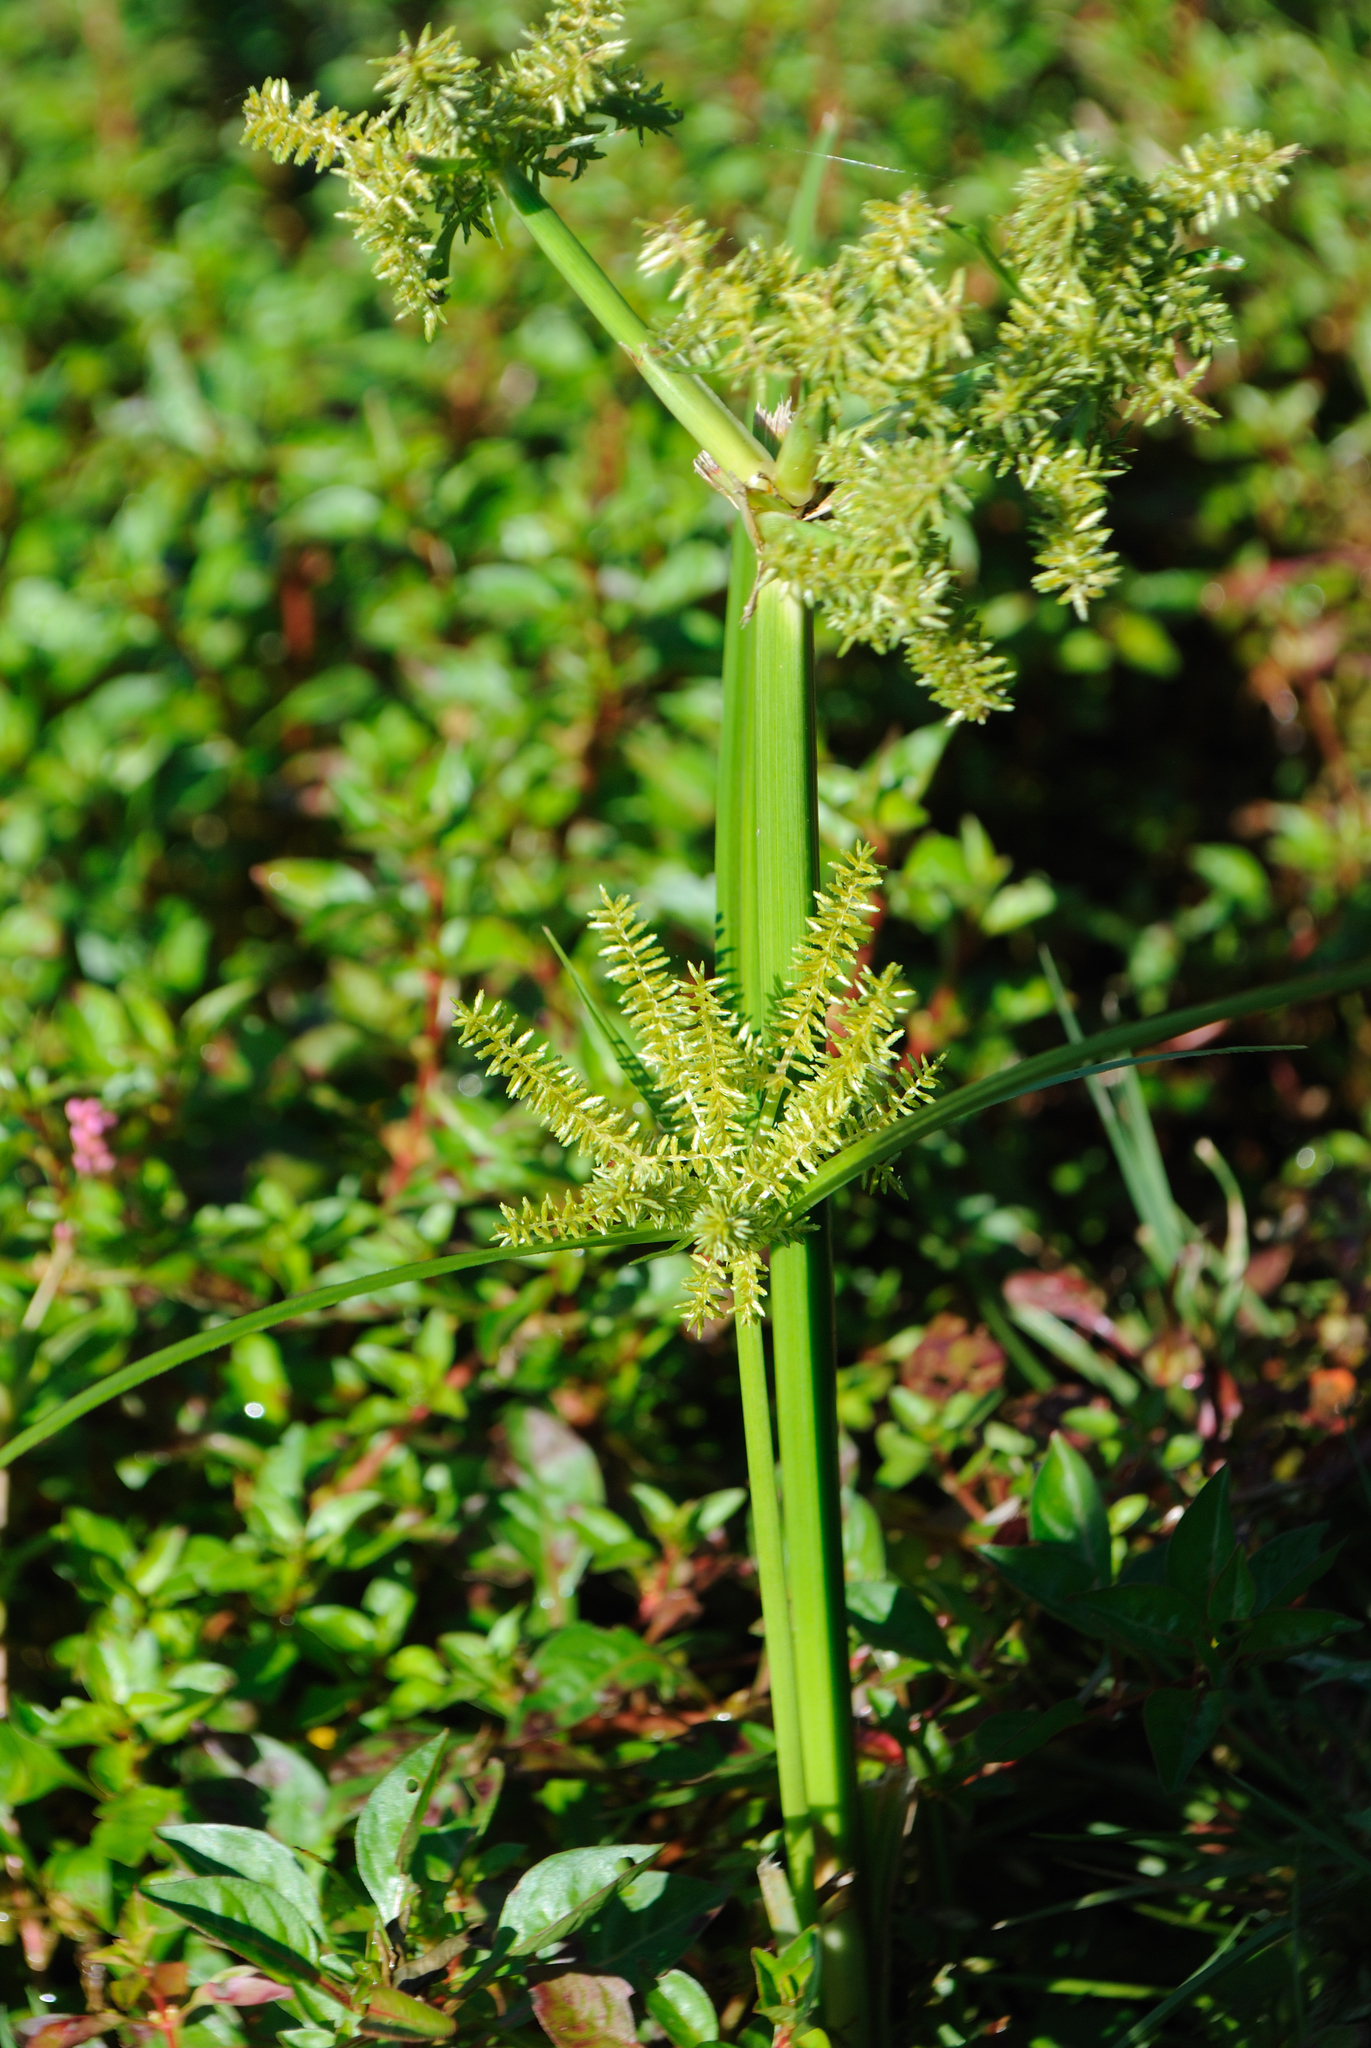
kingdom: Plantae
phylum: Tracheophyta
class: Liliopsida
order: Poales
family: Cyperaceae
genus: Cyperus
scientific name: Cyperus erythrorhizos
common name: Red-root flat sedge
